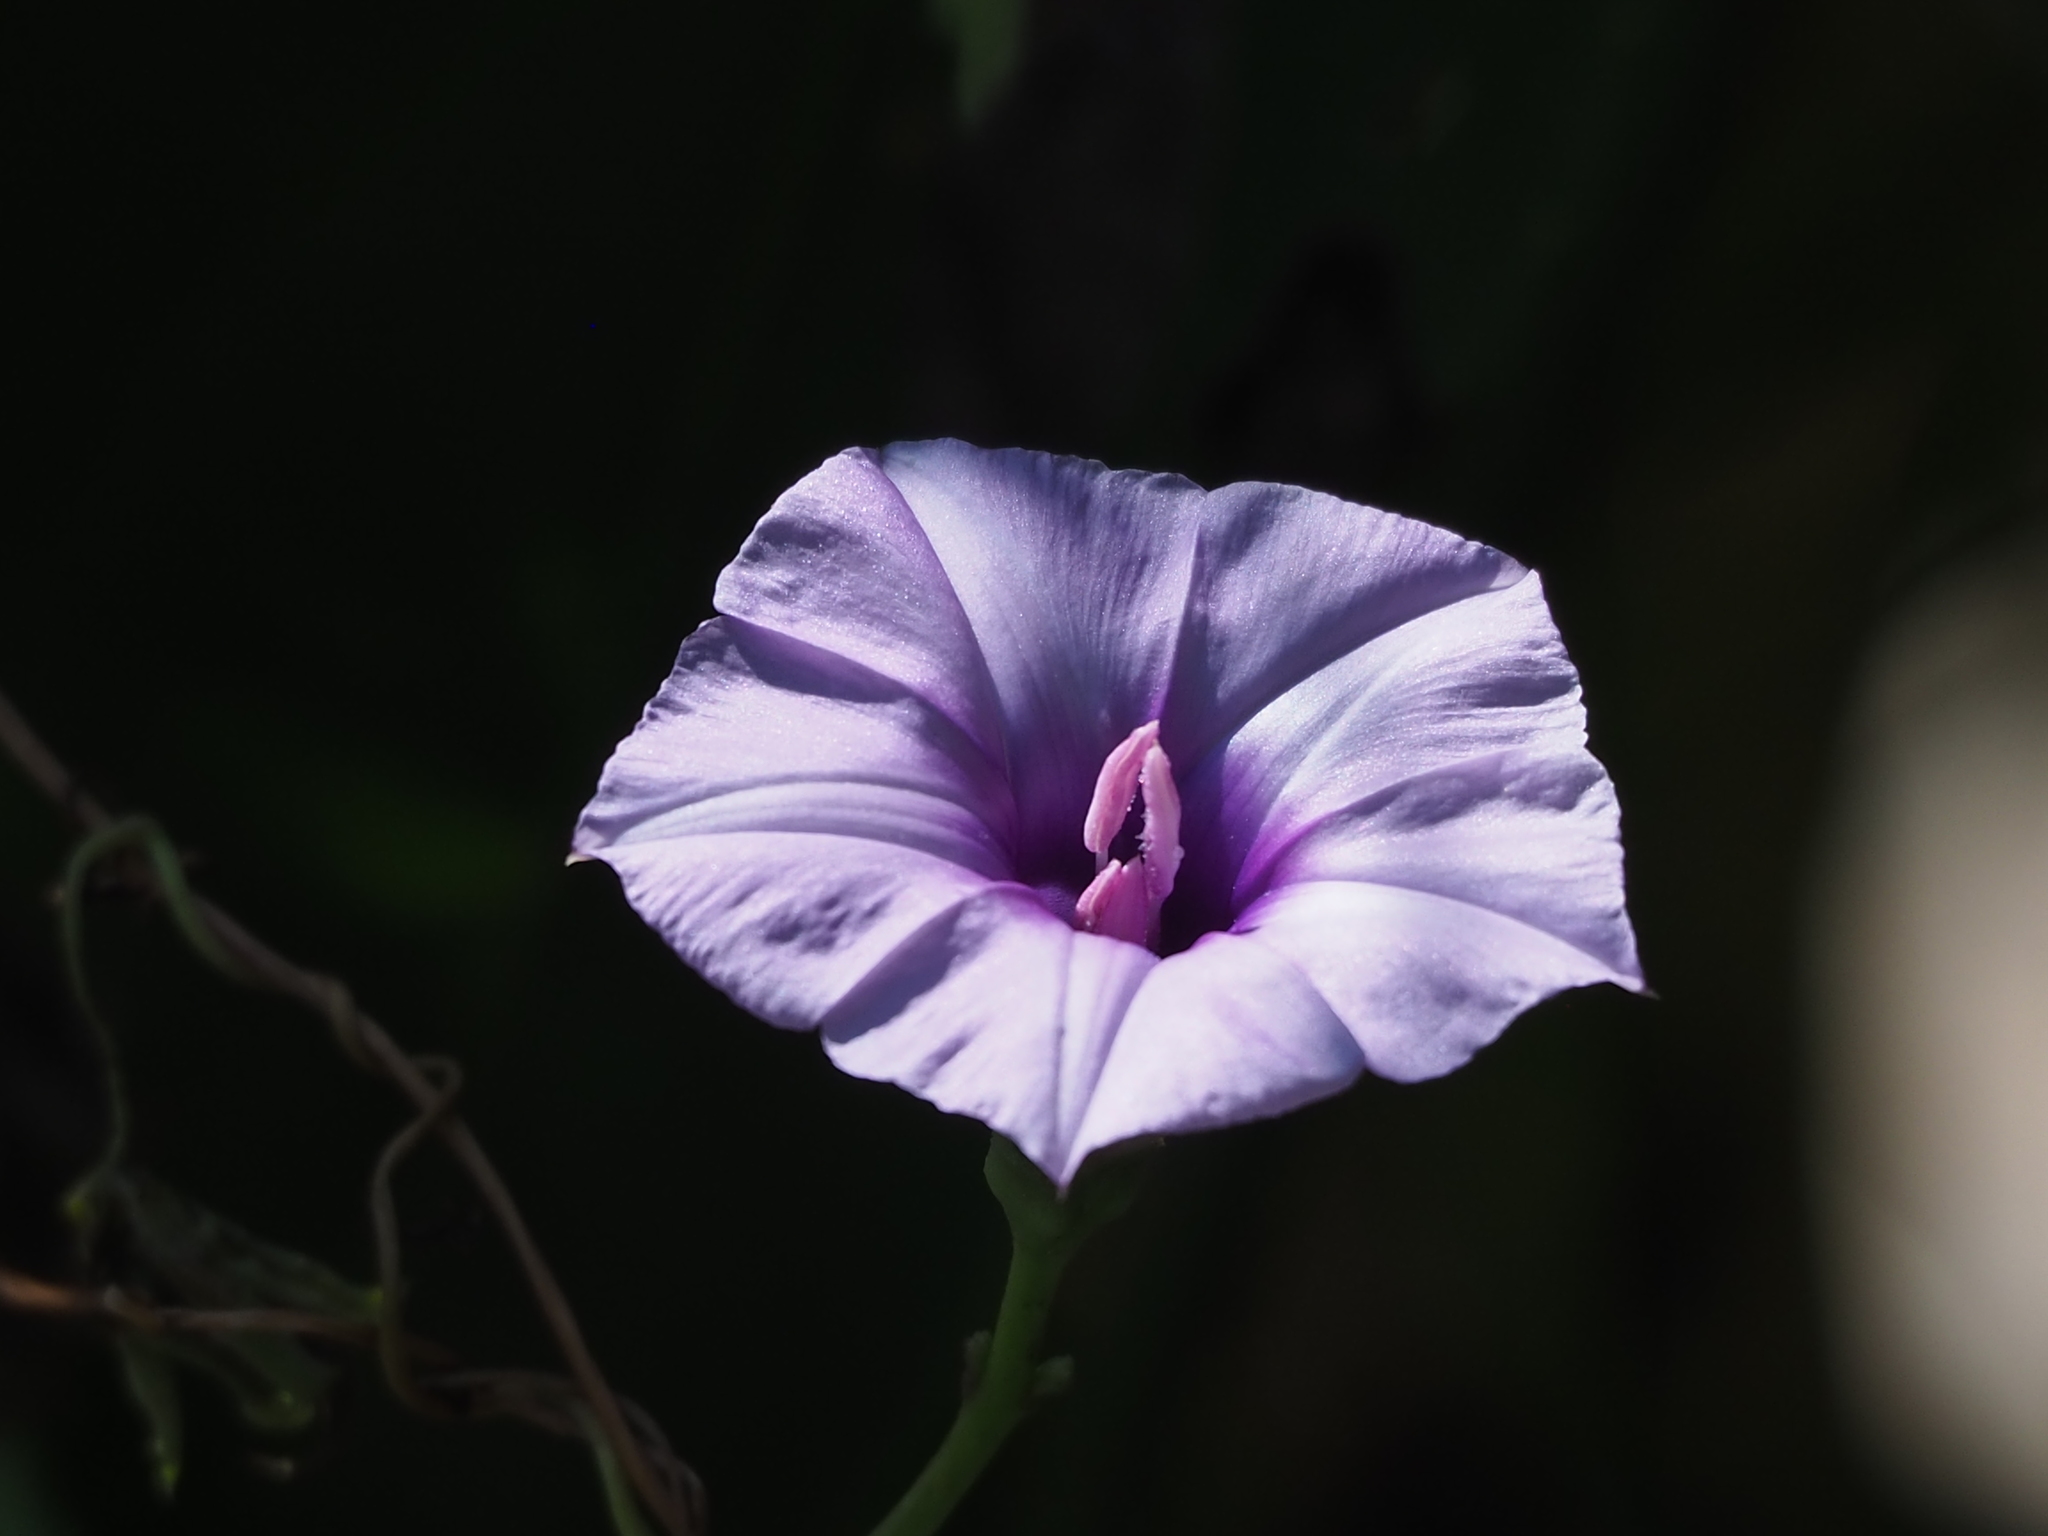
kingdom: Plantae
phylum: Tracheophyta
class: Magnoliopsida
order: Solanales
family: Convolvulaceae
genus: Ipomoea
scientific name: Ipomoea cairica
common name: Mile a minute vine
